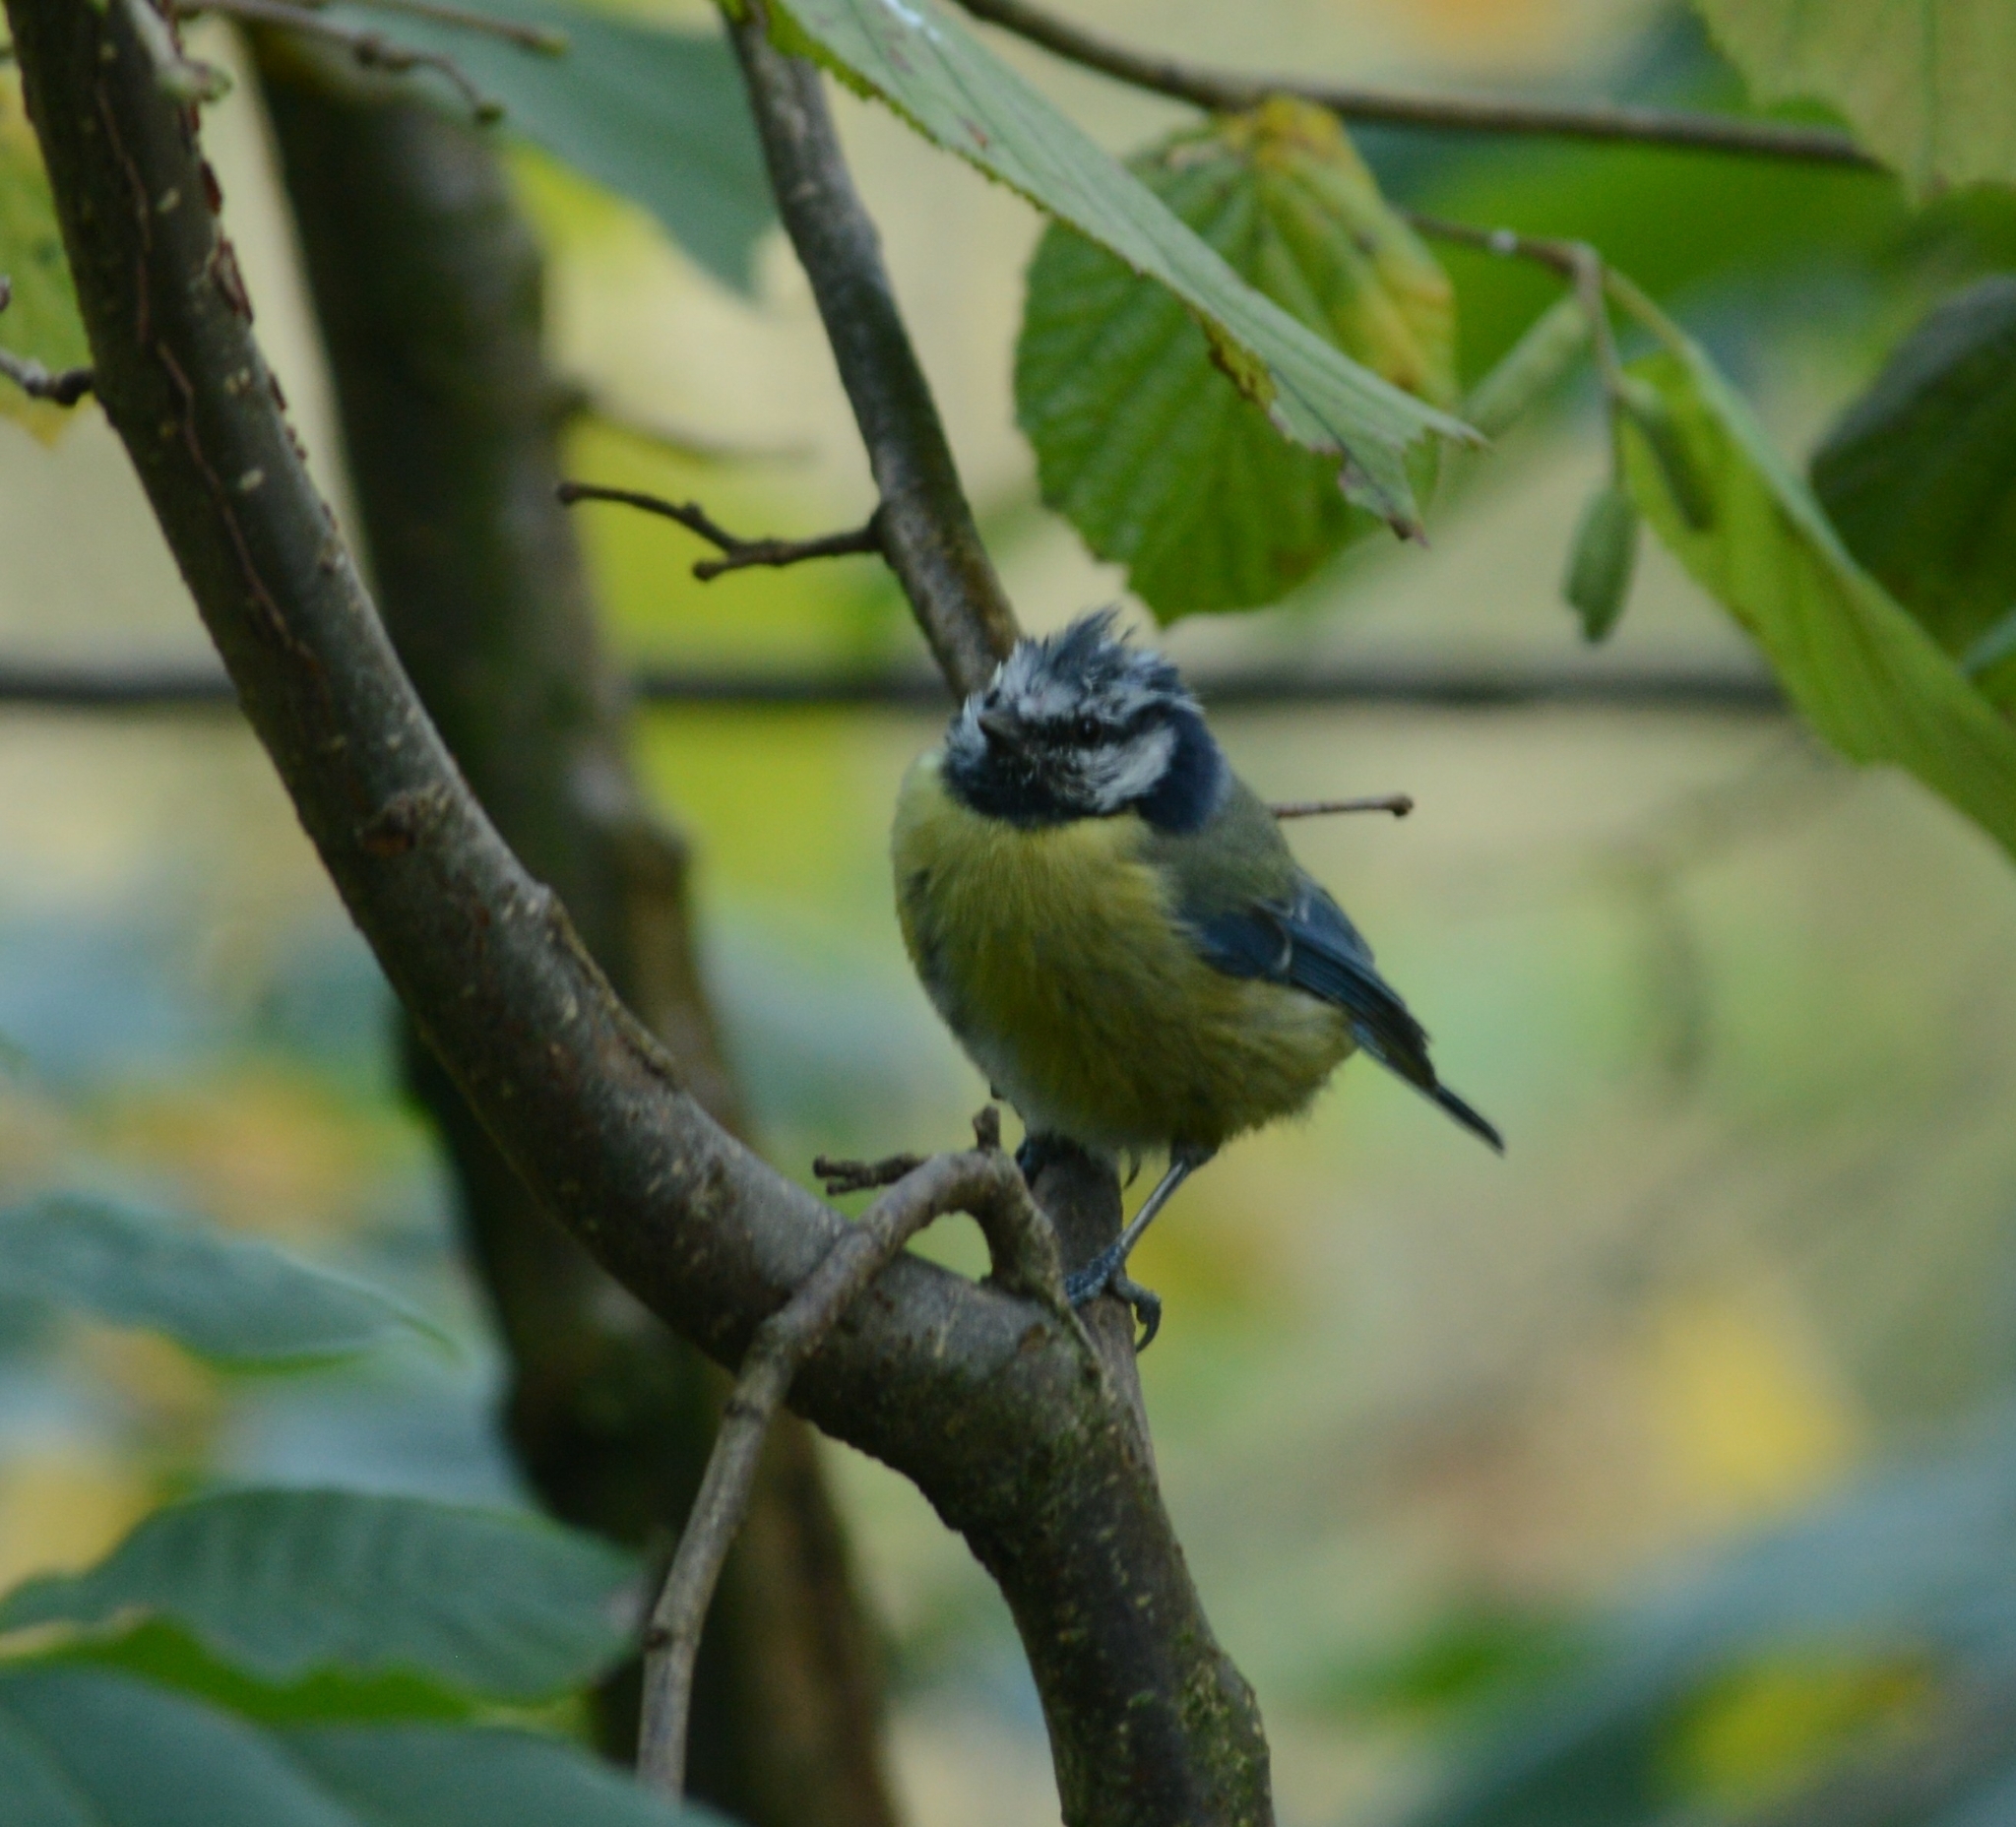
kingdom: Animalia
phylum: Chordata
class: Aves
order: Passeriformes
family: Paridae
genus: Cyanistes
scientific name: Cyanistes caeruleus
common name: Eurasian blue tit
